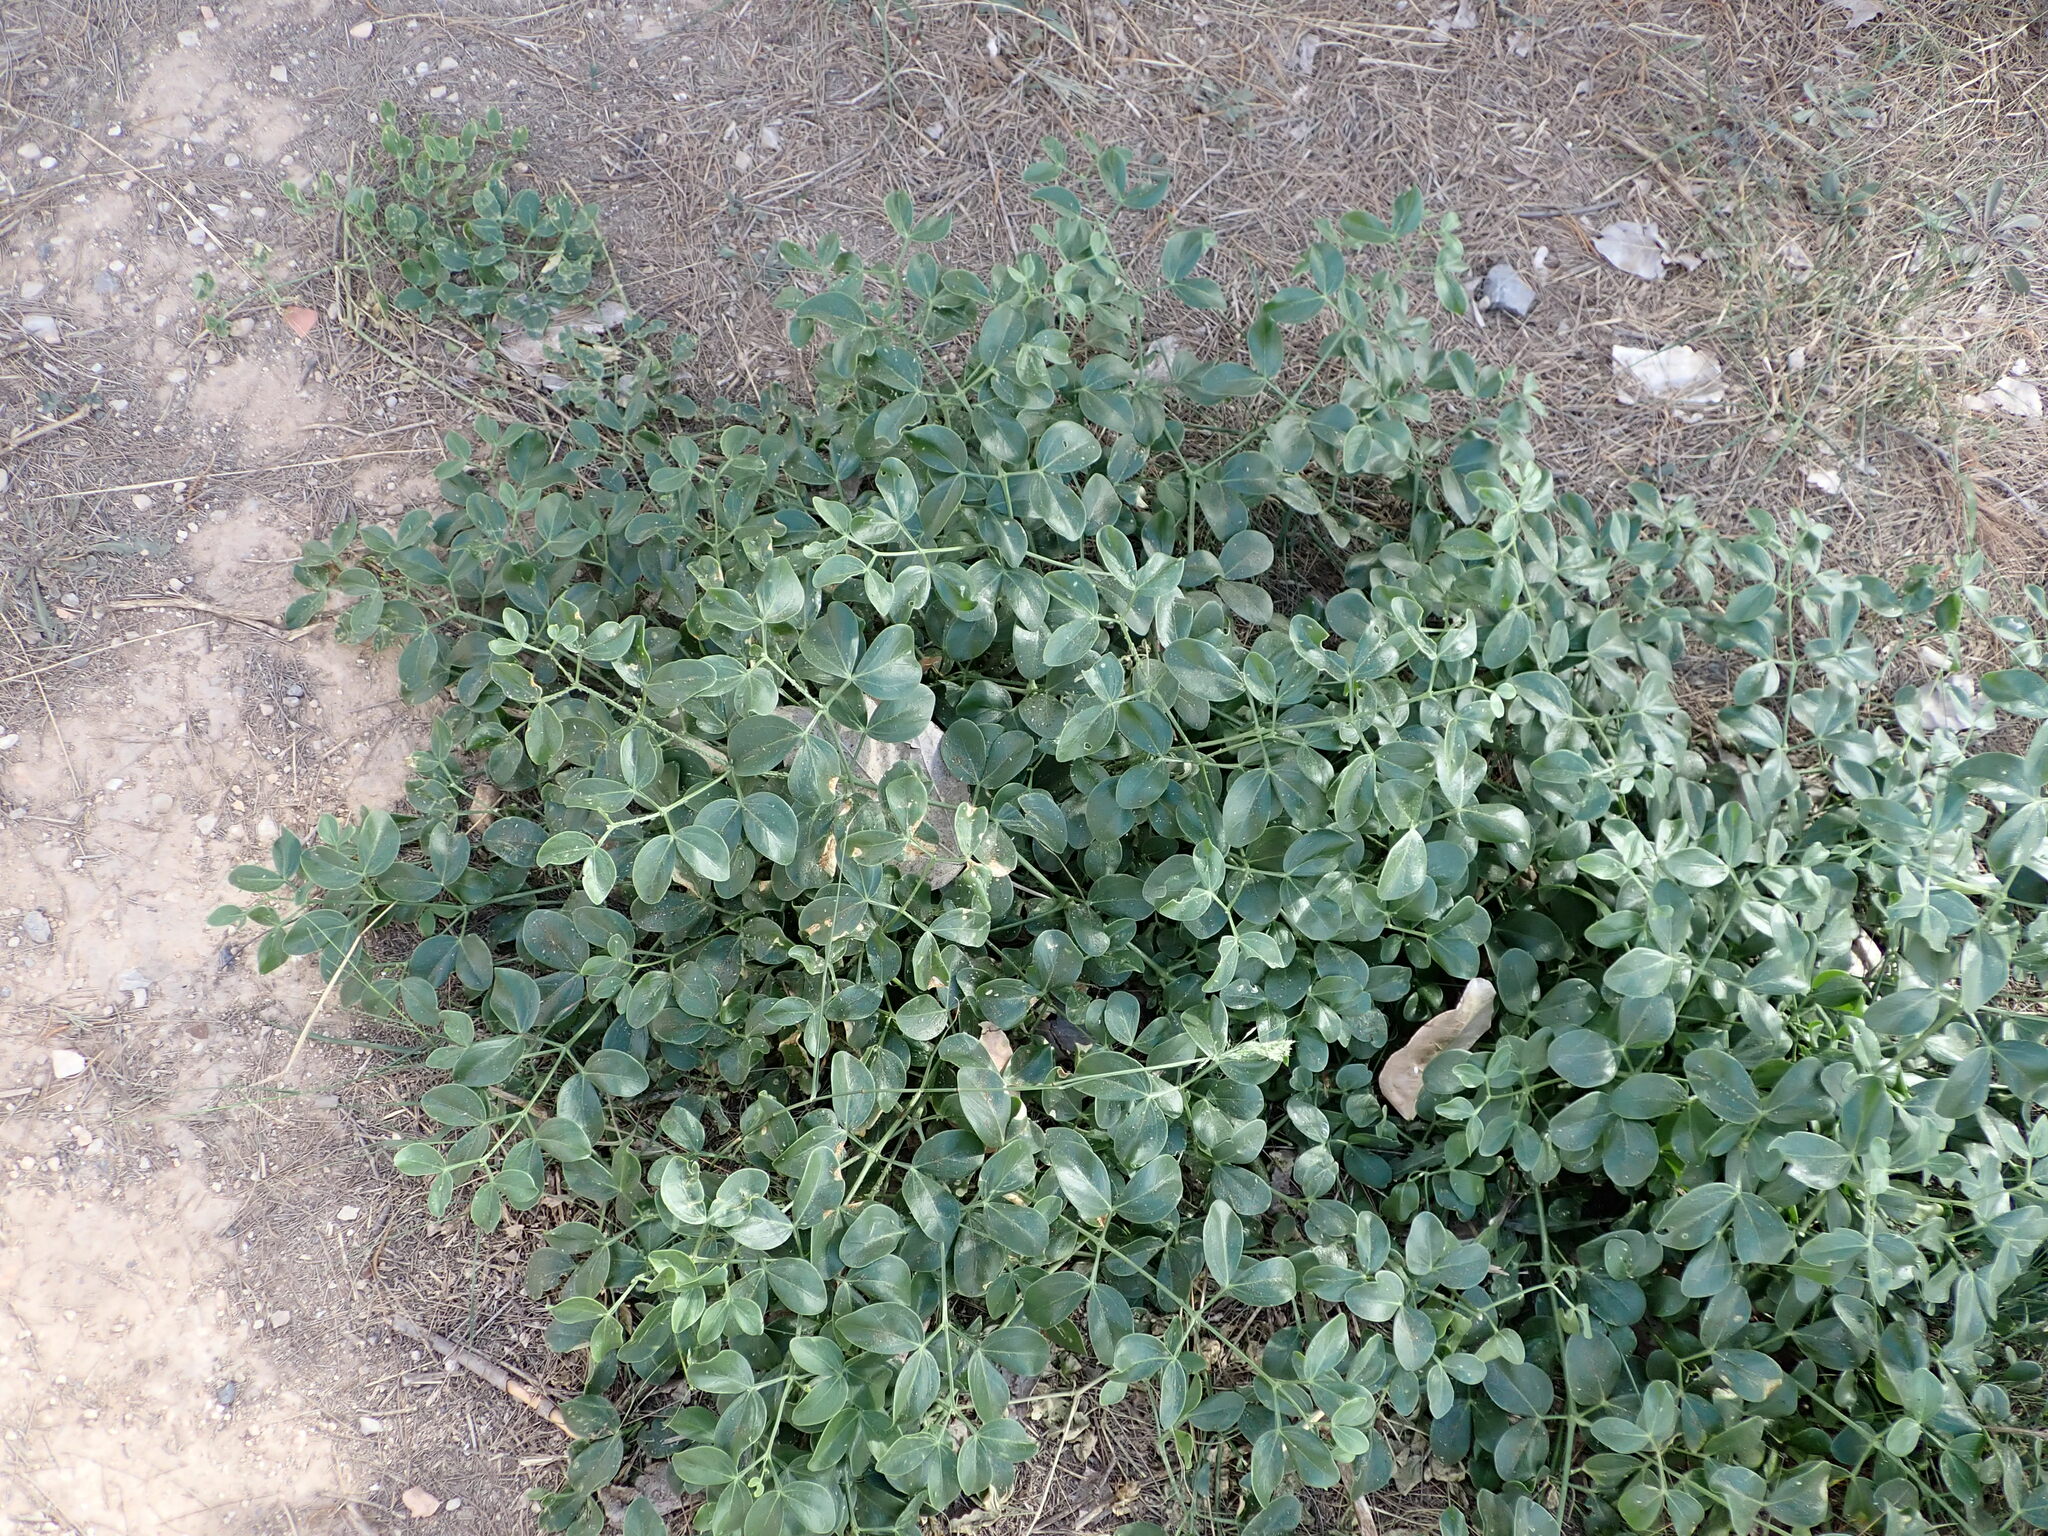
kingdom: Plantae
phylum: Tracheophyta
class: Magnoliopsida
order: Zygophyllales
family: Zygophyllaceae
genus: Zygophyllum
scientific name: Zygophyllum fabago
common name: Syrian beancaper
